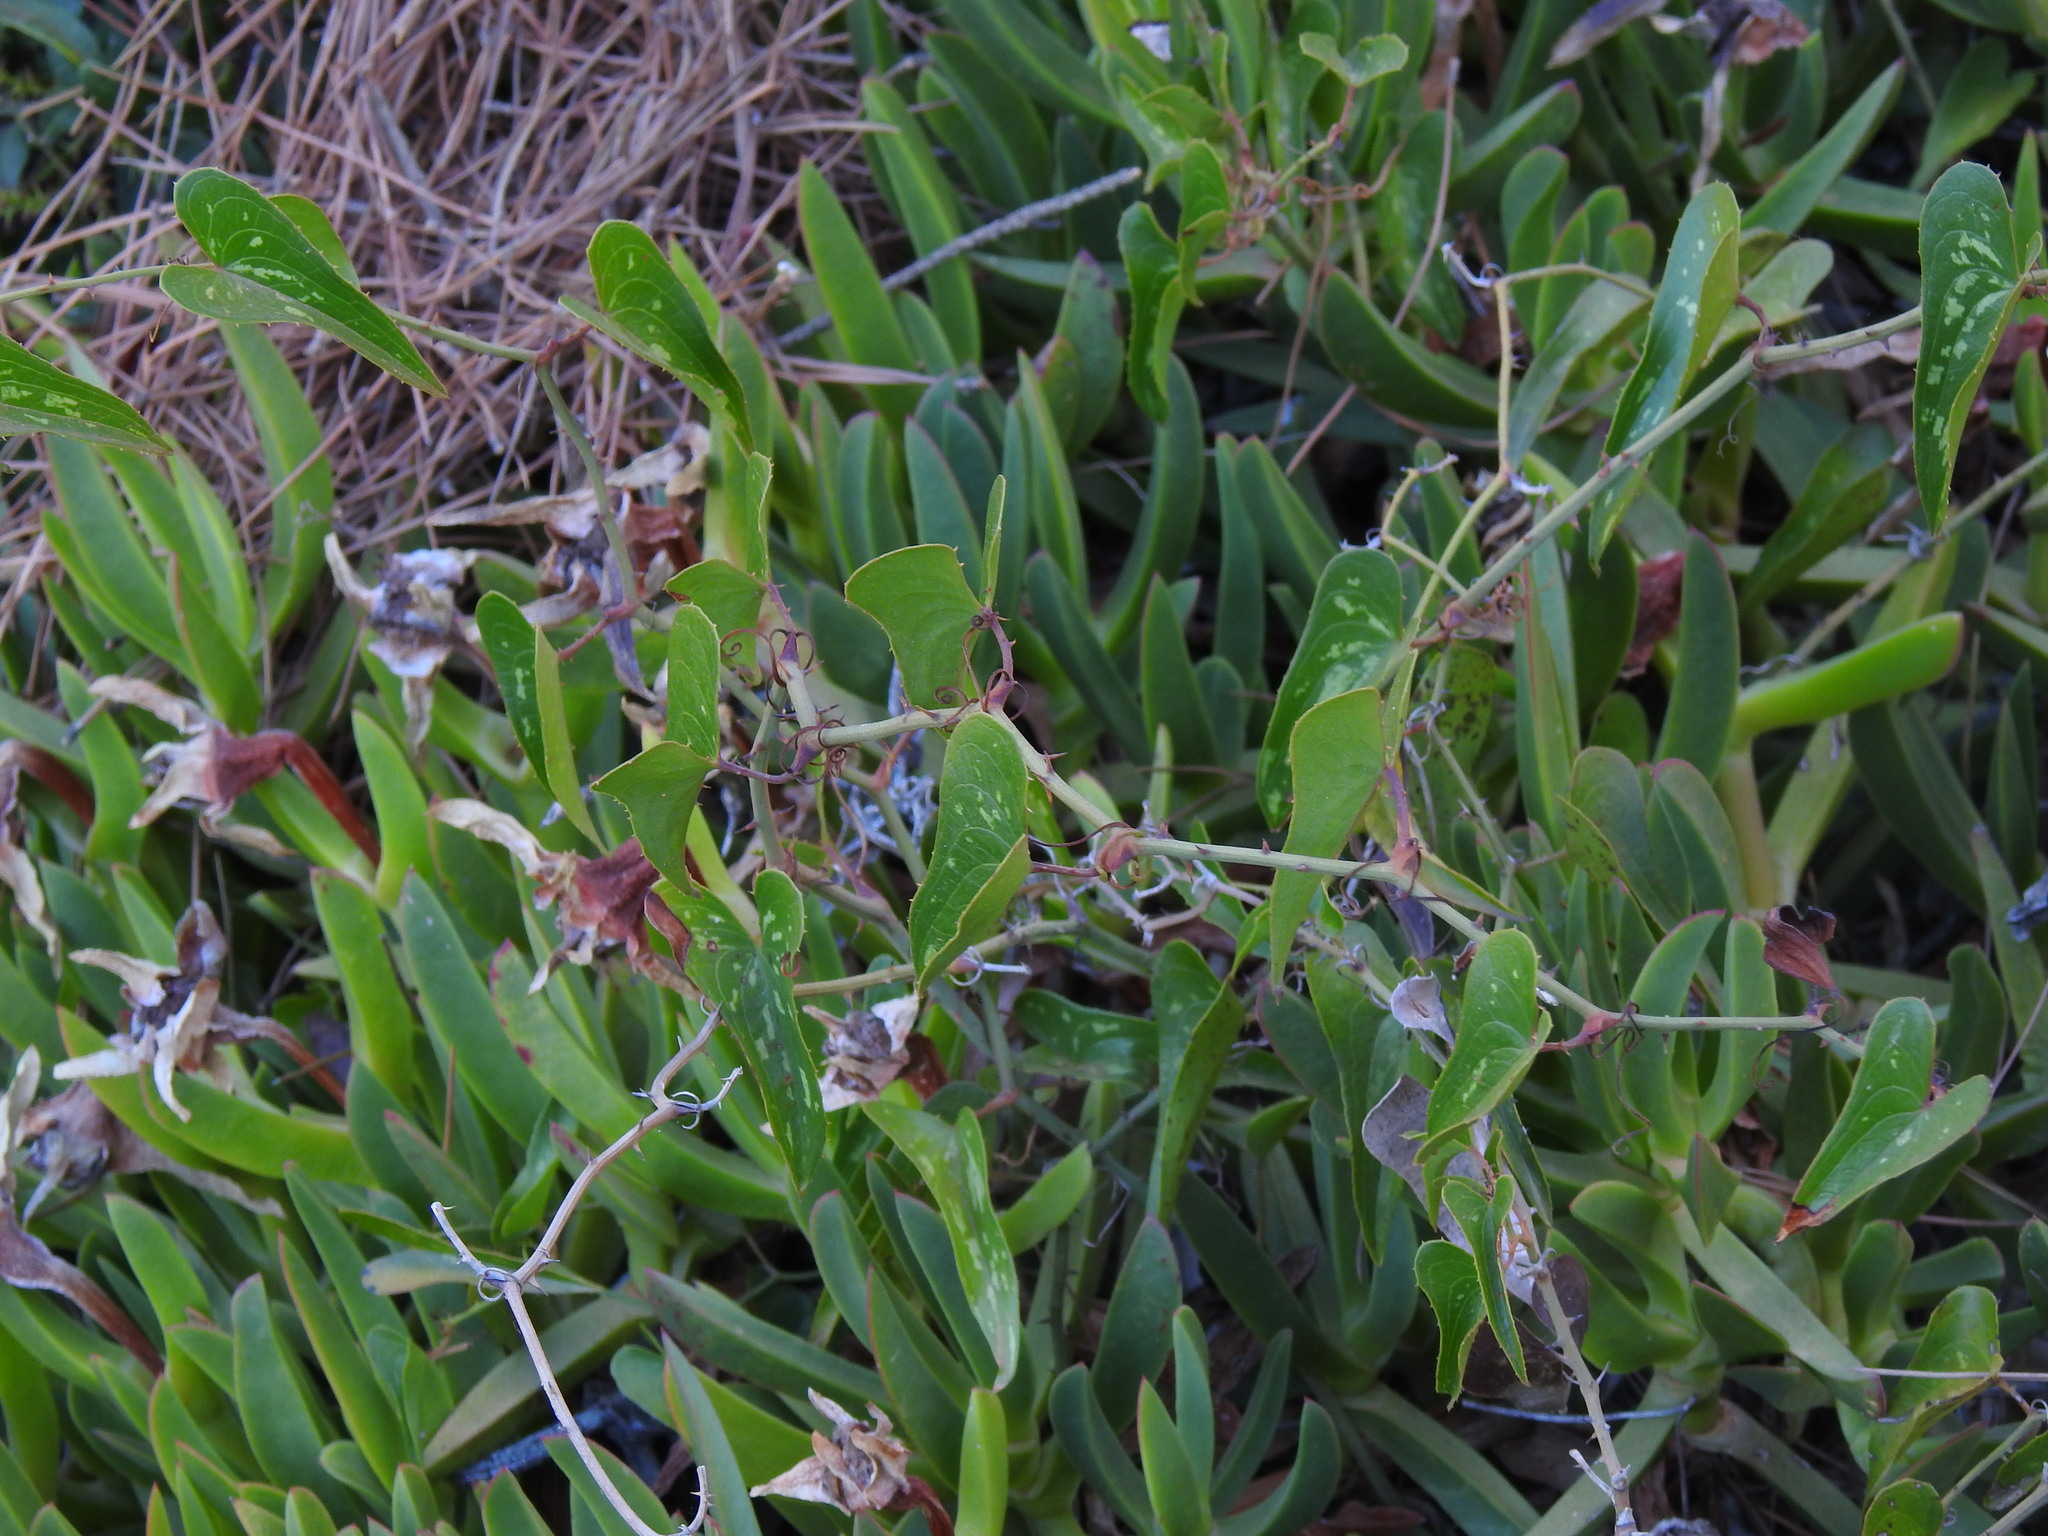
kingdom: Plantae
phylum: Tracheophyta
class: Liliopsida
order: Liliales
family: Smilacaceae
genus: Smilax
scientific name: Smilax aspera
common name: Common smilax
